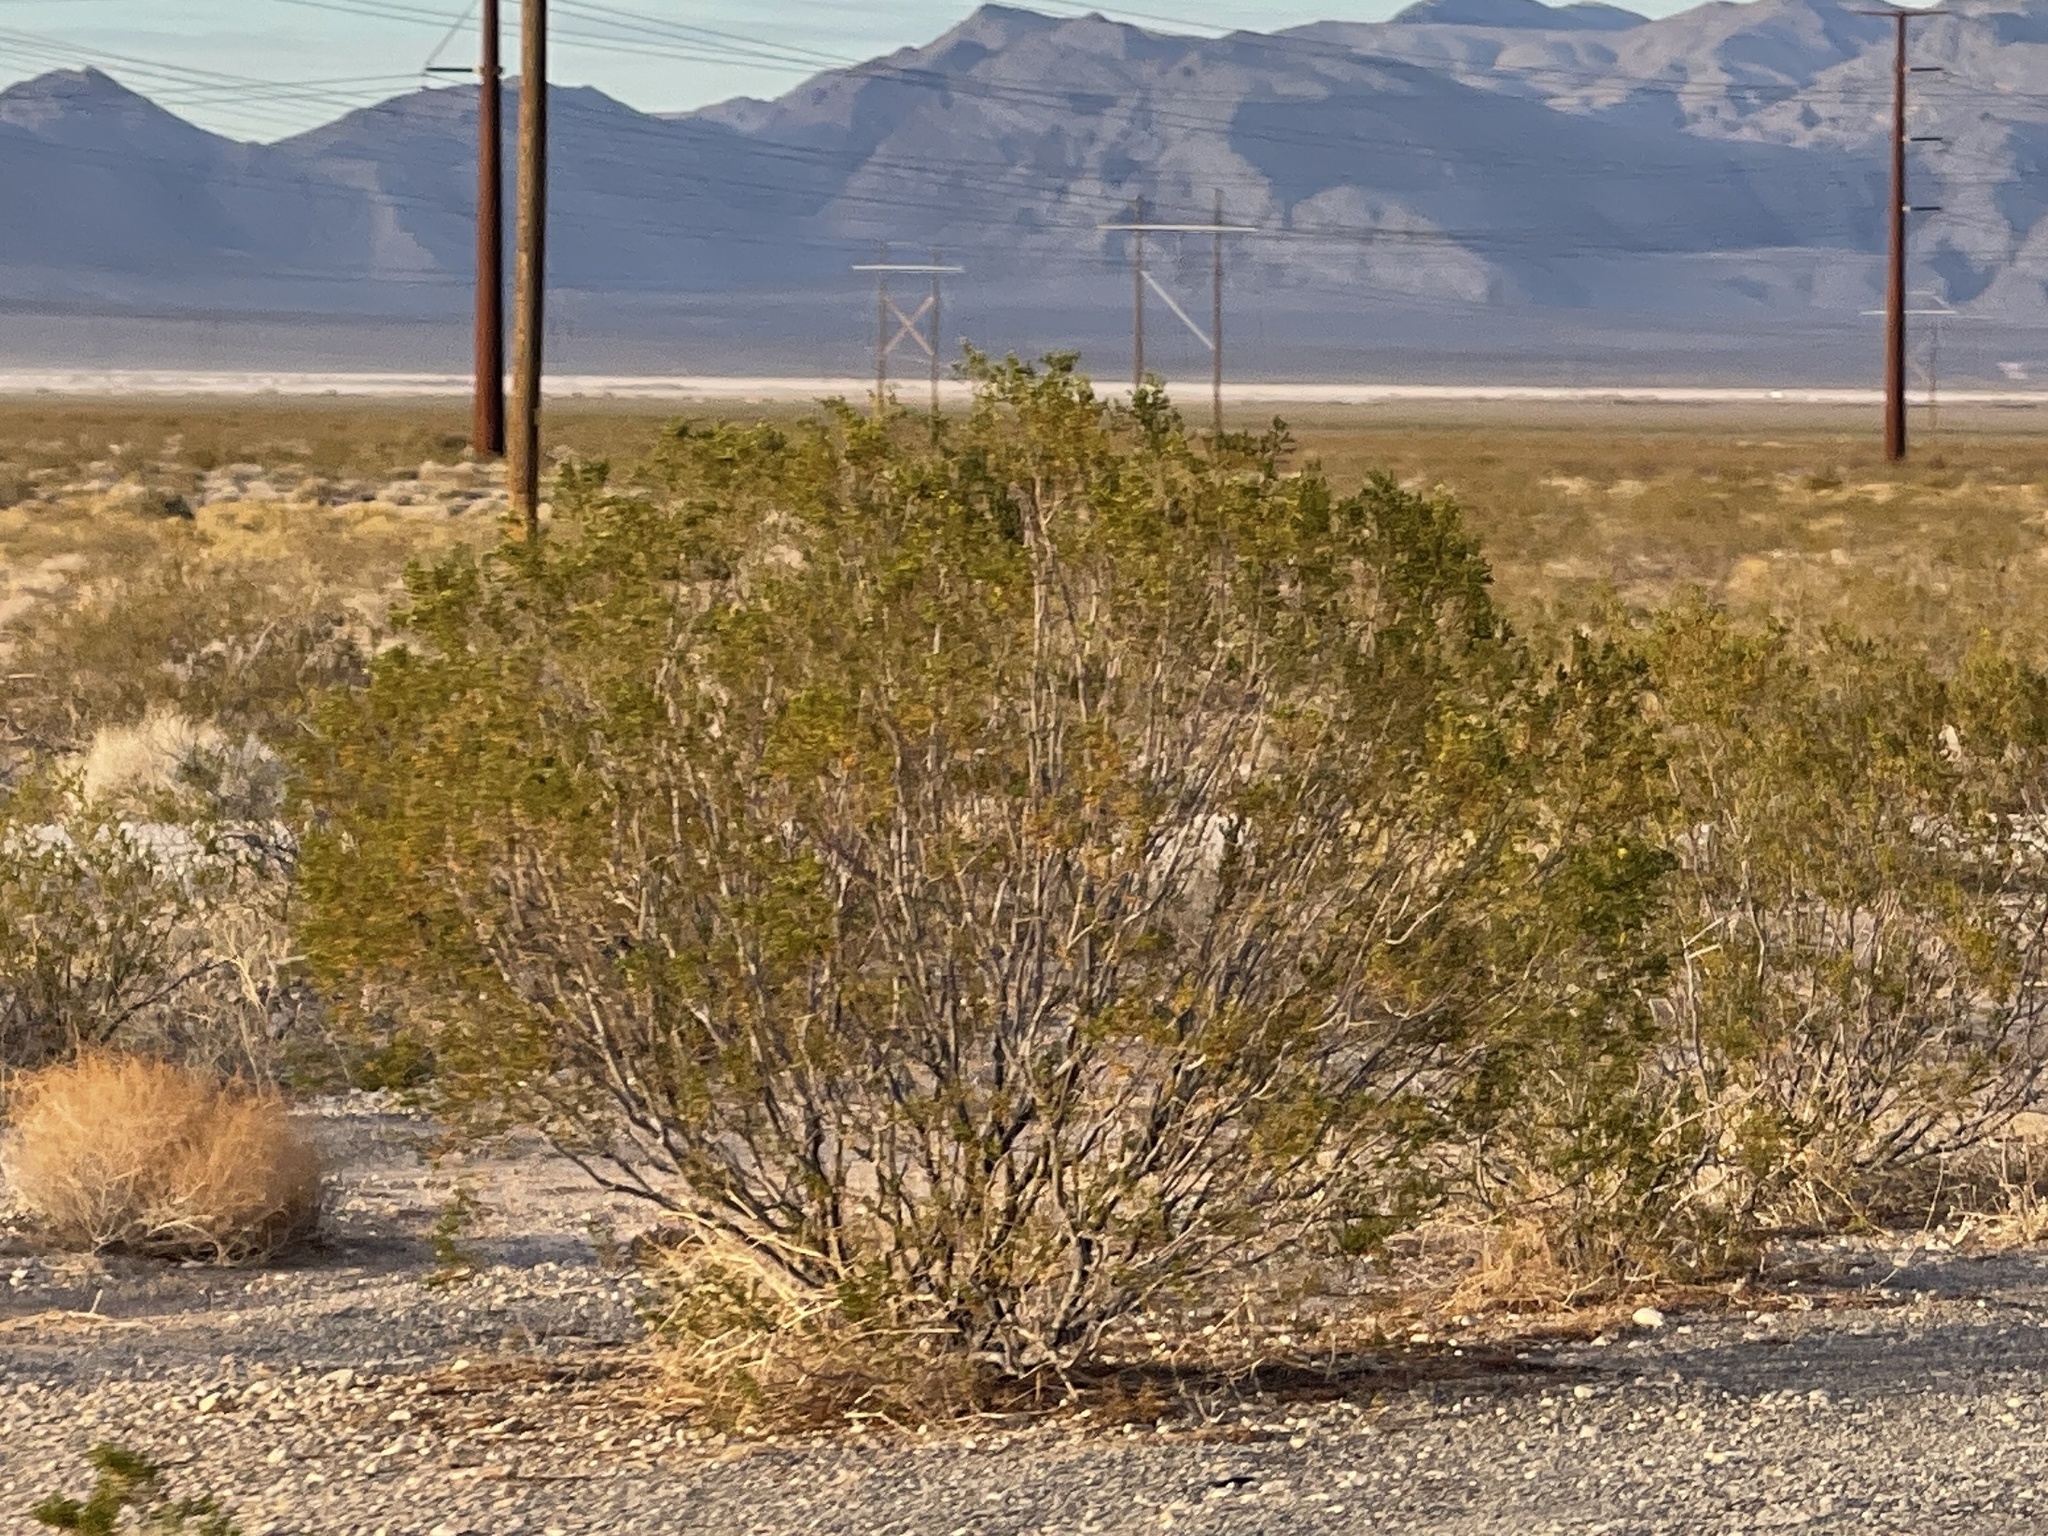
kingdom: Plantae
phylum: Tracheophyta
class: Magnoliopsida
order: Zygophyllales
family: Zygophyllaceae
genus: Larrea
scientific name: Larrea tridentata
